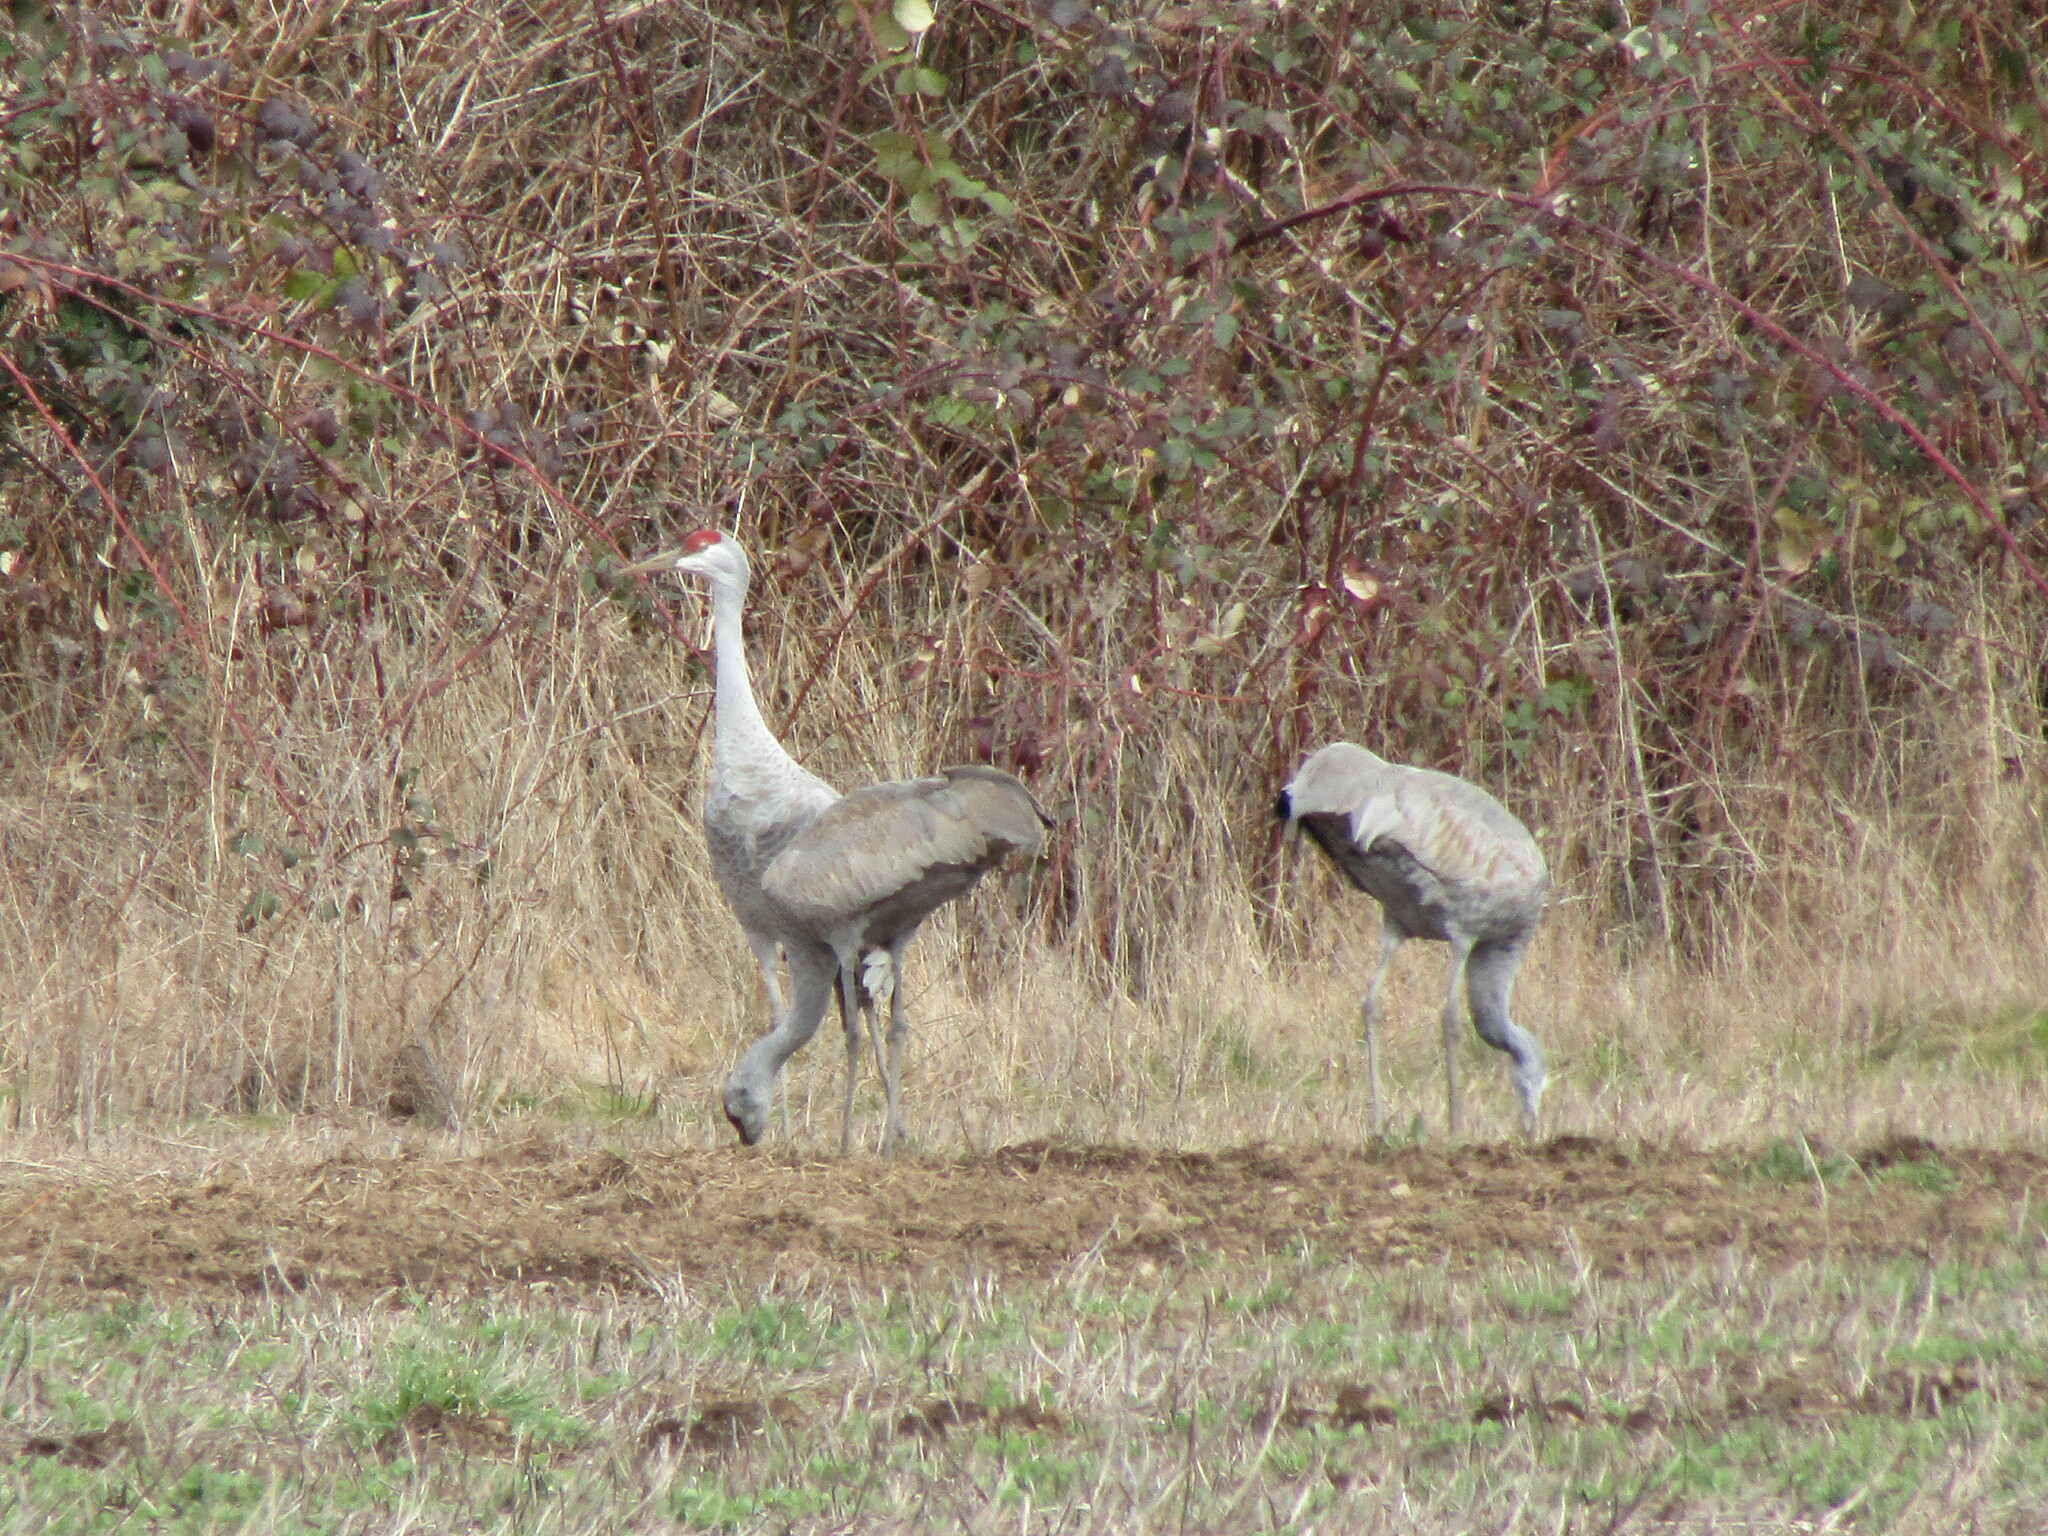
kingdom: Animalia
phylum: Chordata
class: Aves
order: Gruiformes
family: Gruidae
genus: Grus
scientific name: Grus canadensis
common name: Sandhill crane
